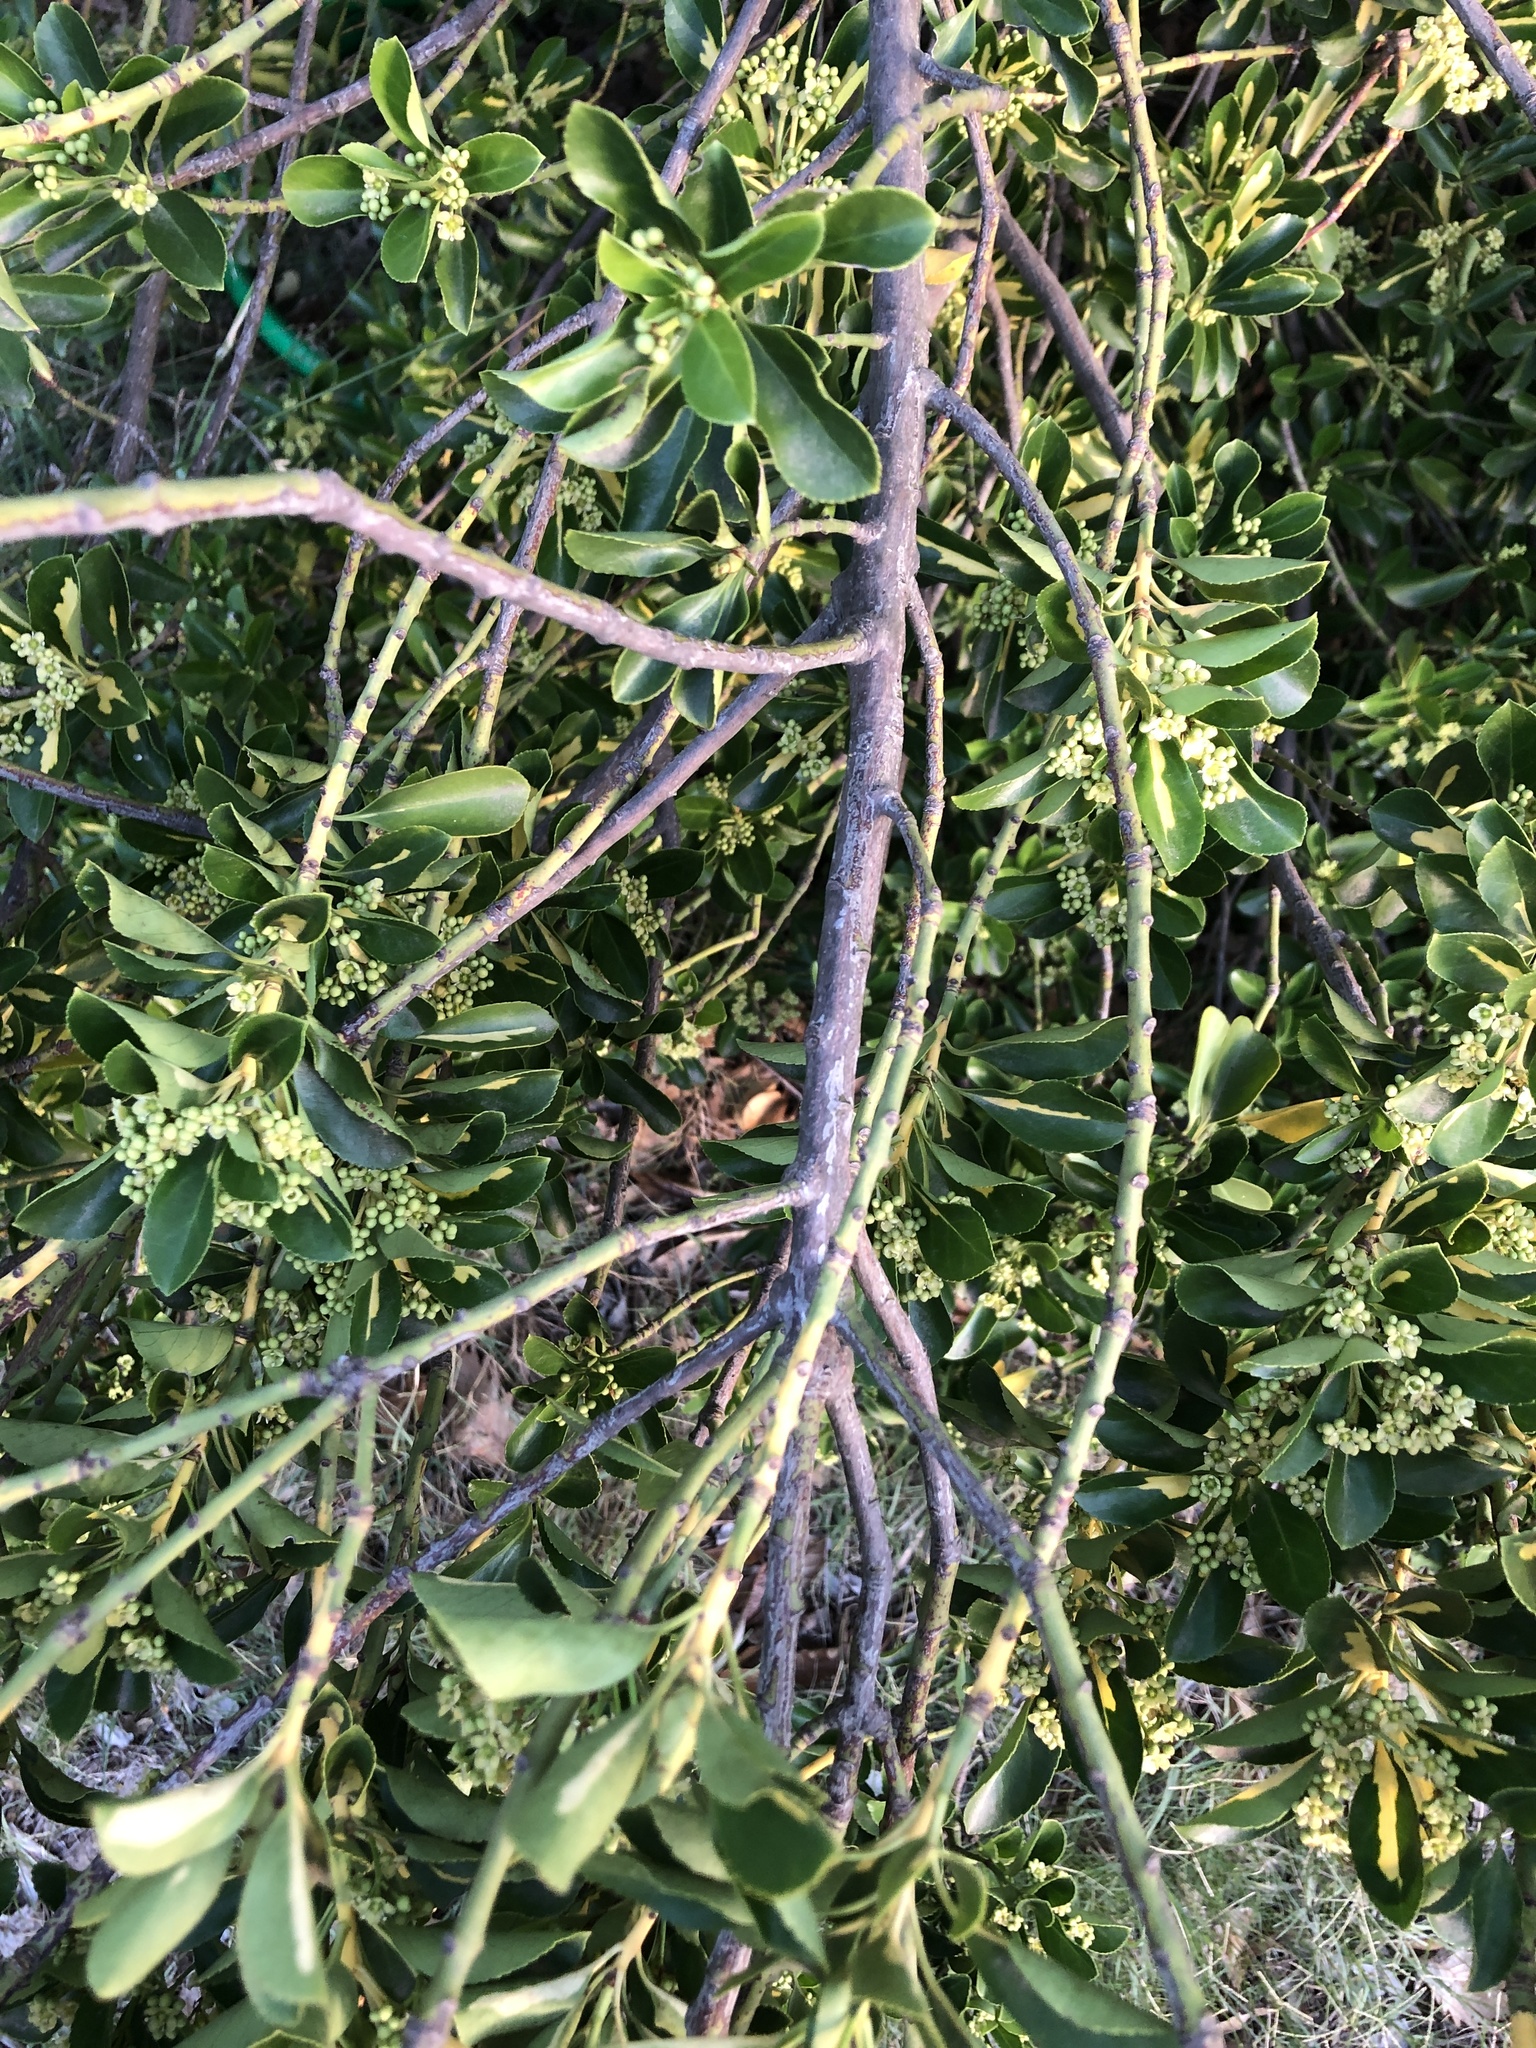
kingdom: Plantae
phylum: Tracheophyta
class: Magnoliopsida
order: Celastrales
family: Celastraceae
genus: Euonymus
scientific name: Euonymus japonicus
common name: Japanese spindletree
